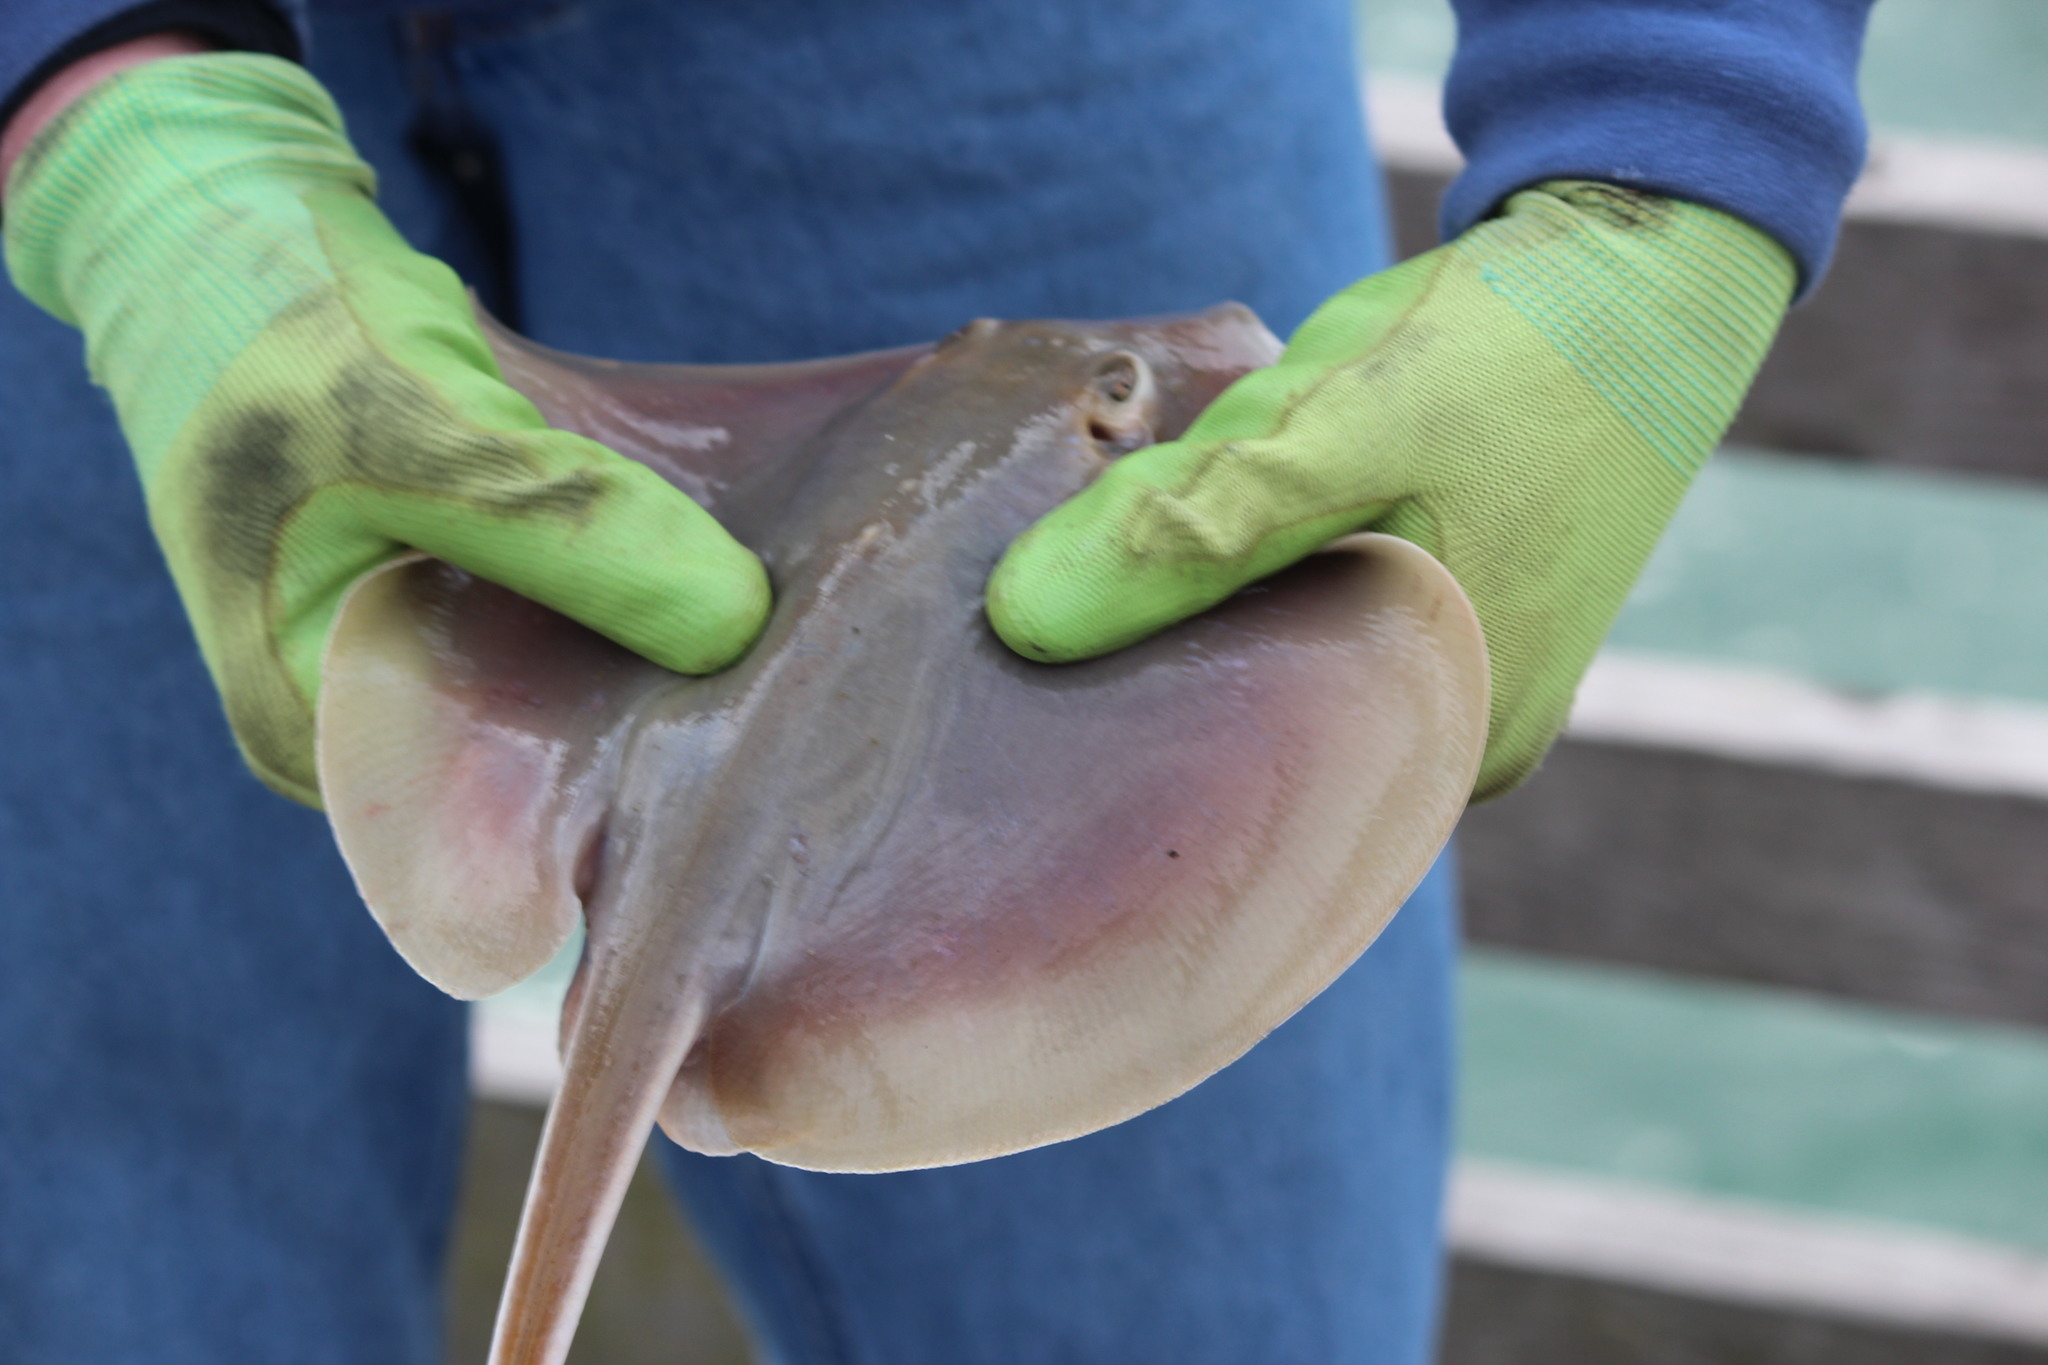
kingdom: Animalia
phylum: Chordata
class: Elasmobranchii
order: Myliobatiformes
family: Dasyatidae
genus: Hypanus
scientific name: Hypanus sabinus
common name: Atlantic stingray
